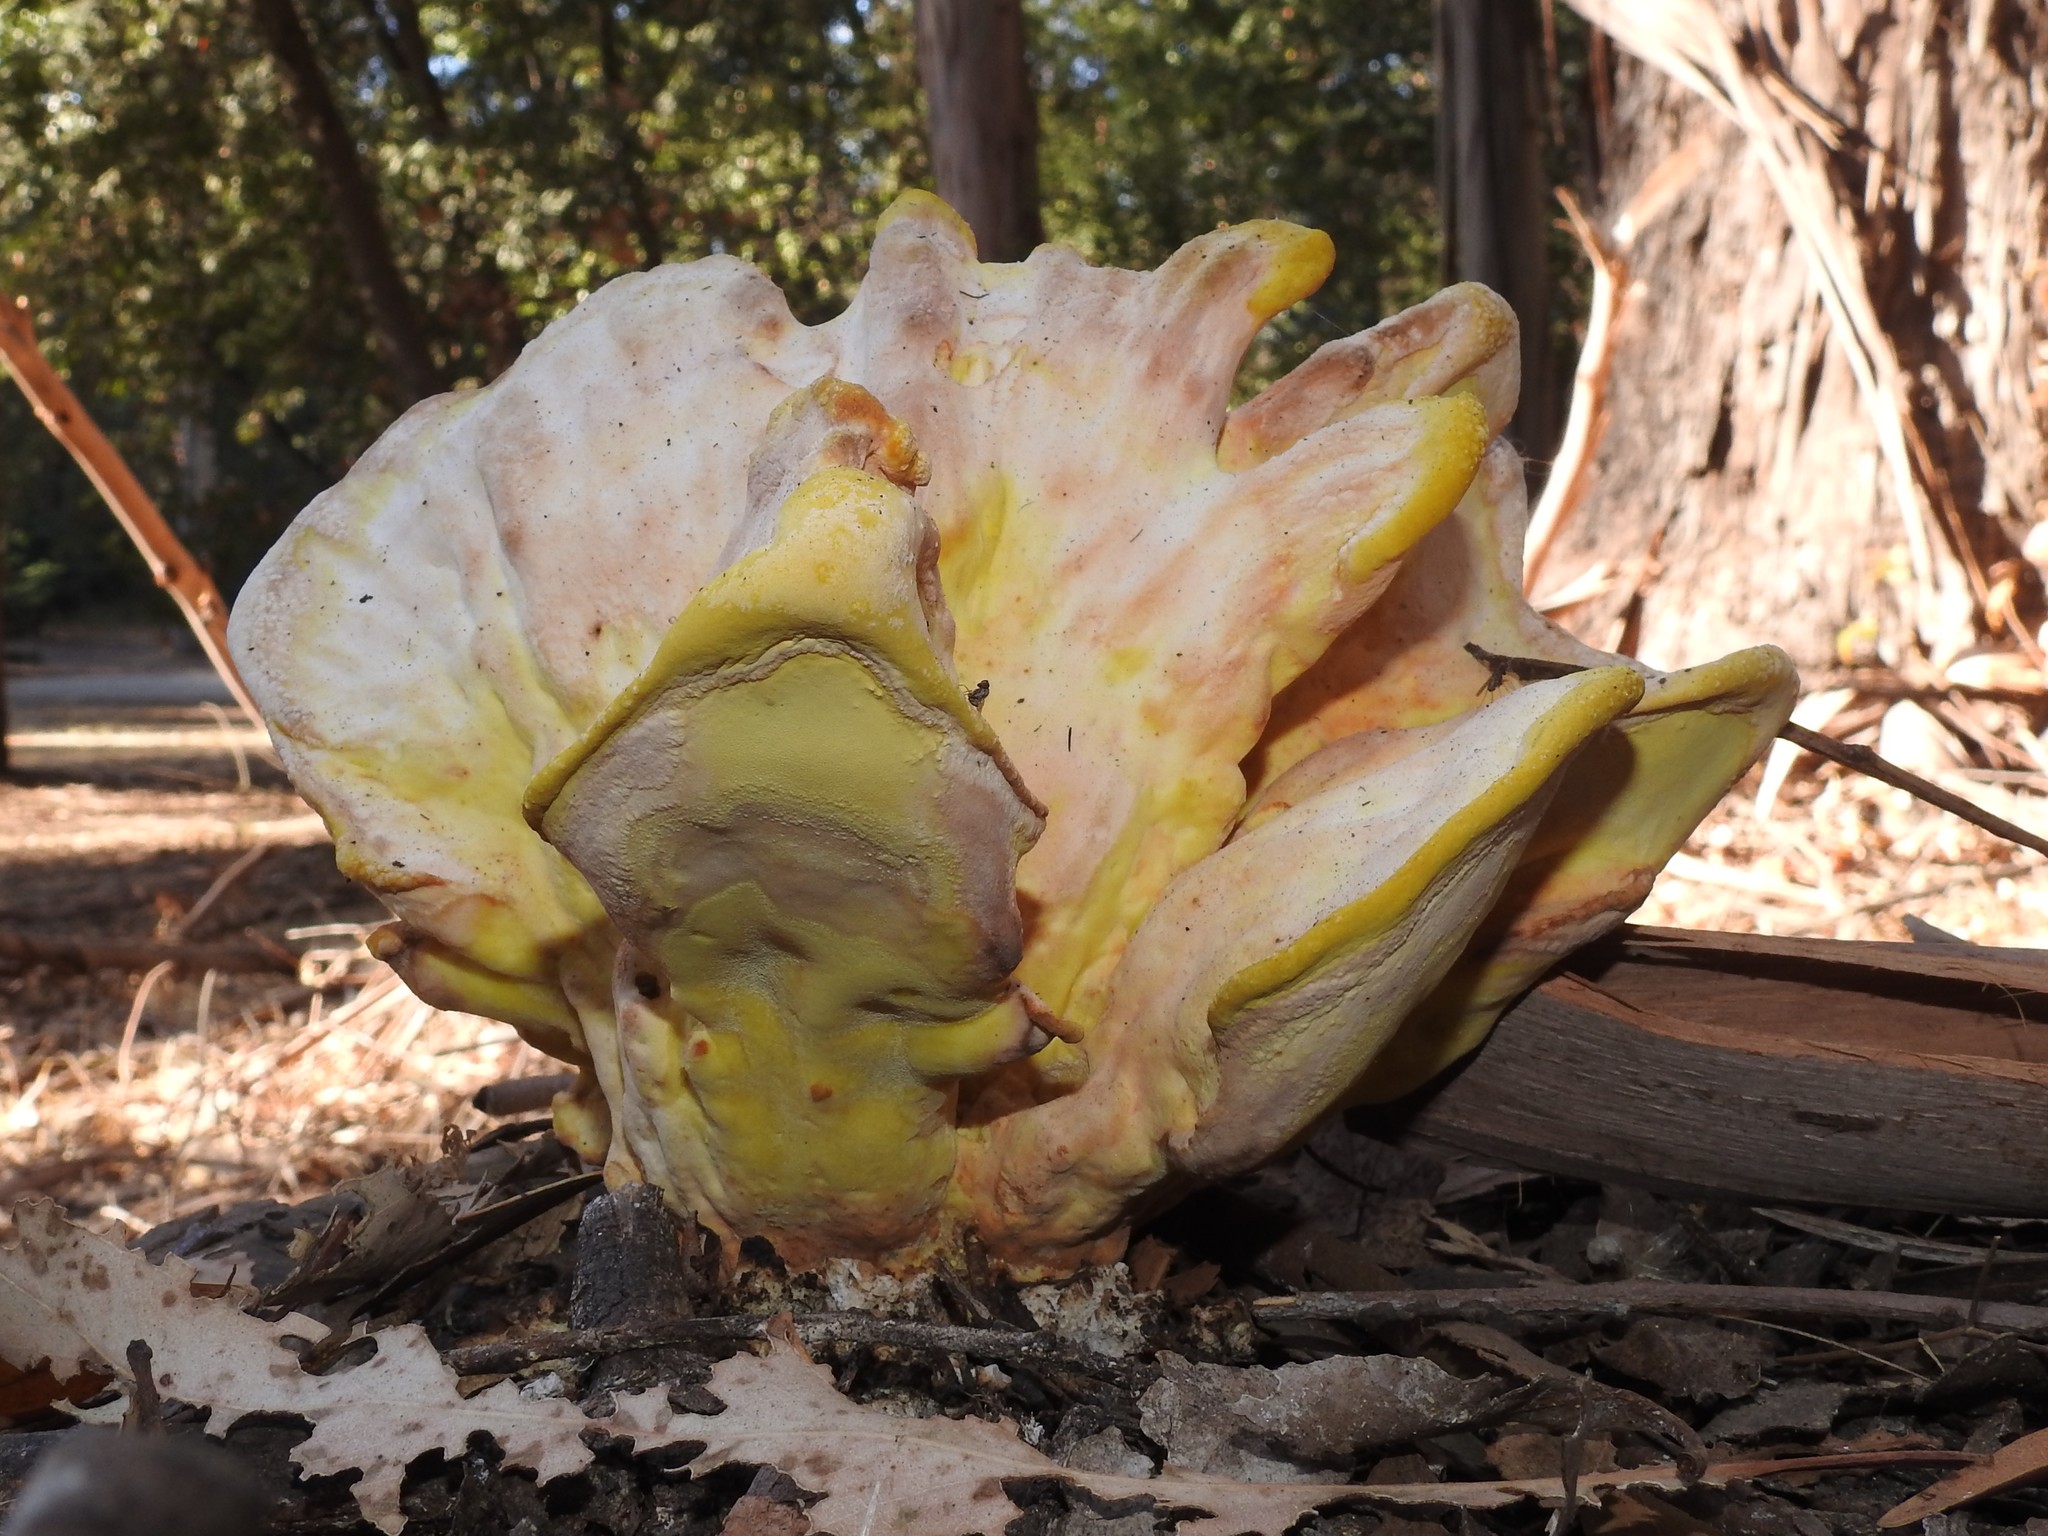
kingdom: Fungi
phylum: Basidiomycota
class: Agaricomycetes
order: Polyporales
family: Laetiporaceae
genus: Laetiporus
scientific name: Laetiporus gilbertsonii
